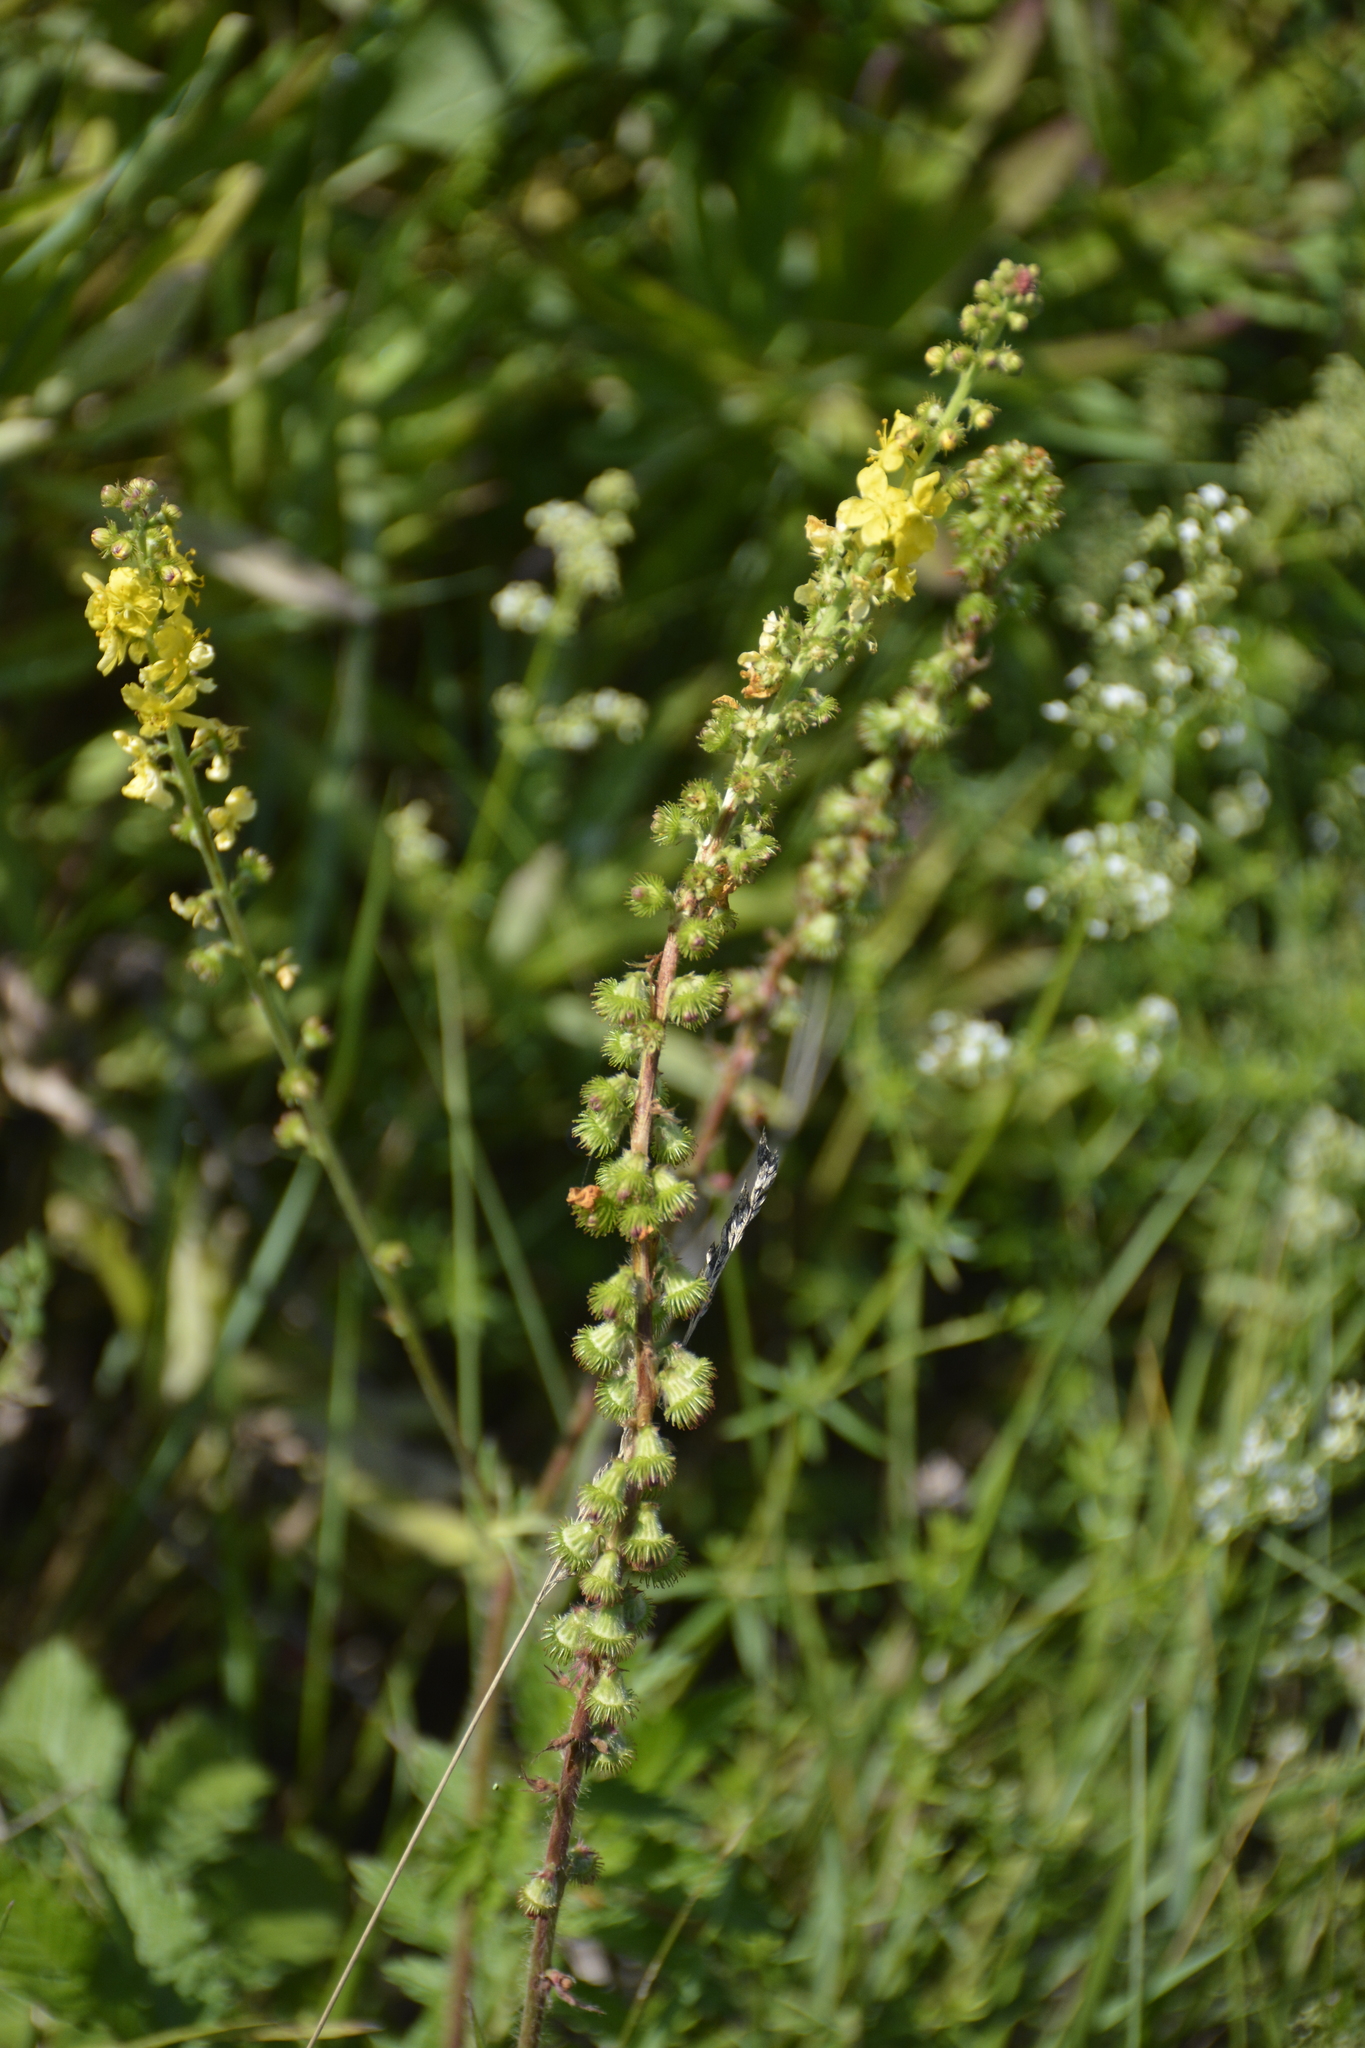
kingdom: Plantae
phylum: Tracheophyta
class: Magnoliopsida
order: Rosales
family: Rosaceae
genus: Agrimonia
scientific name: Agrimonia eupatoria
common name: Agrimony
